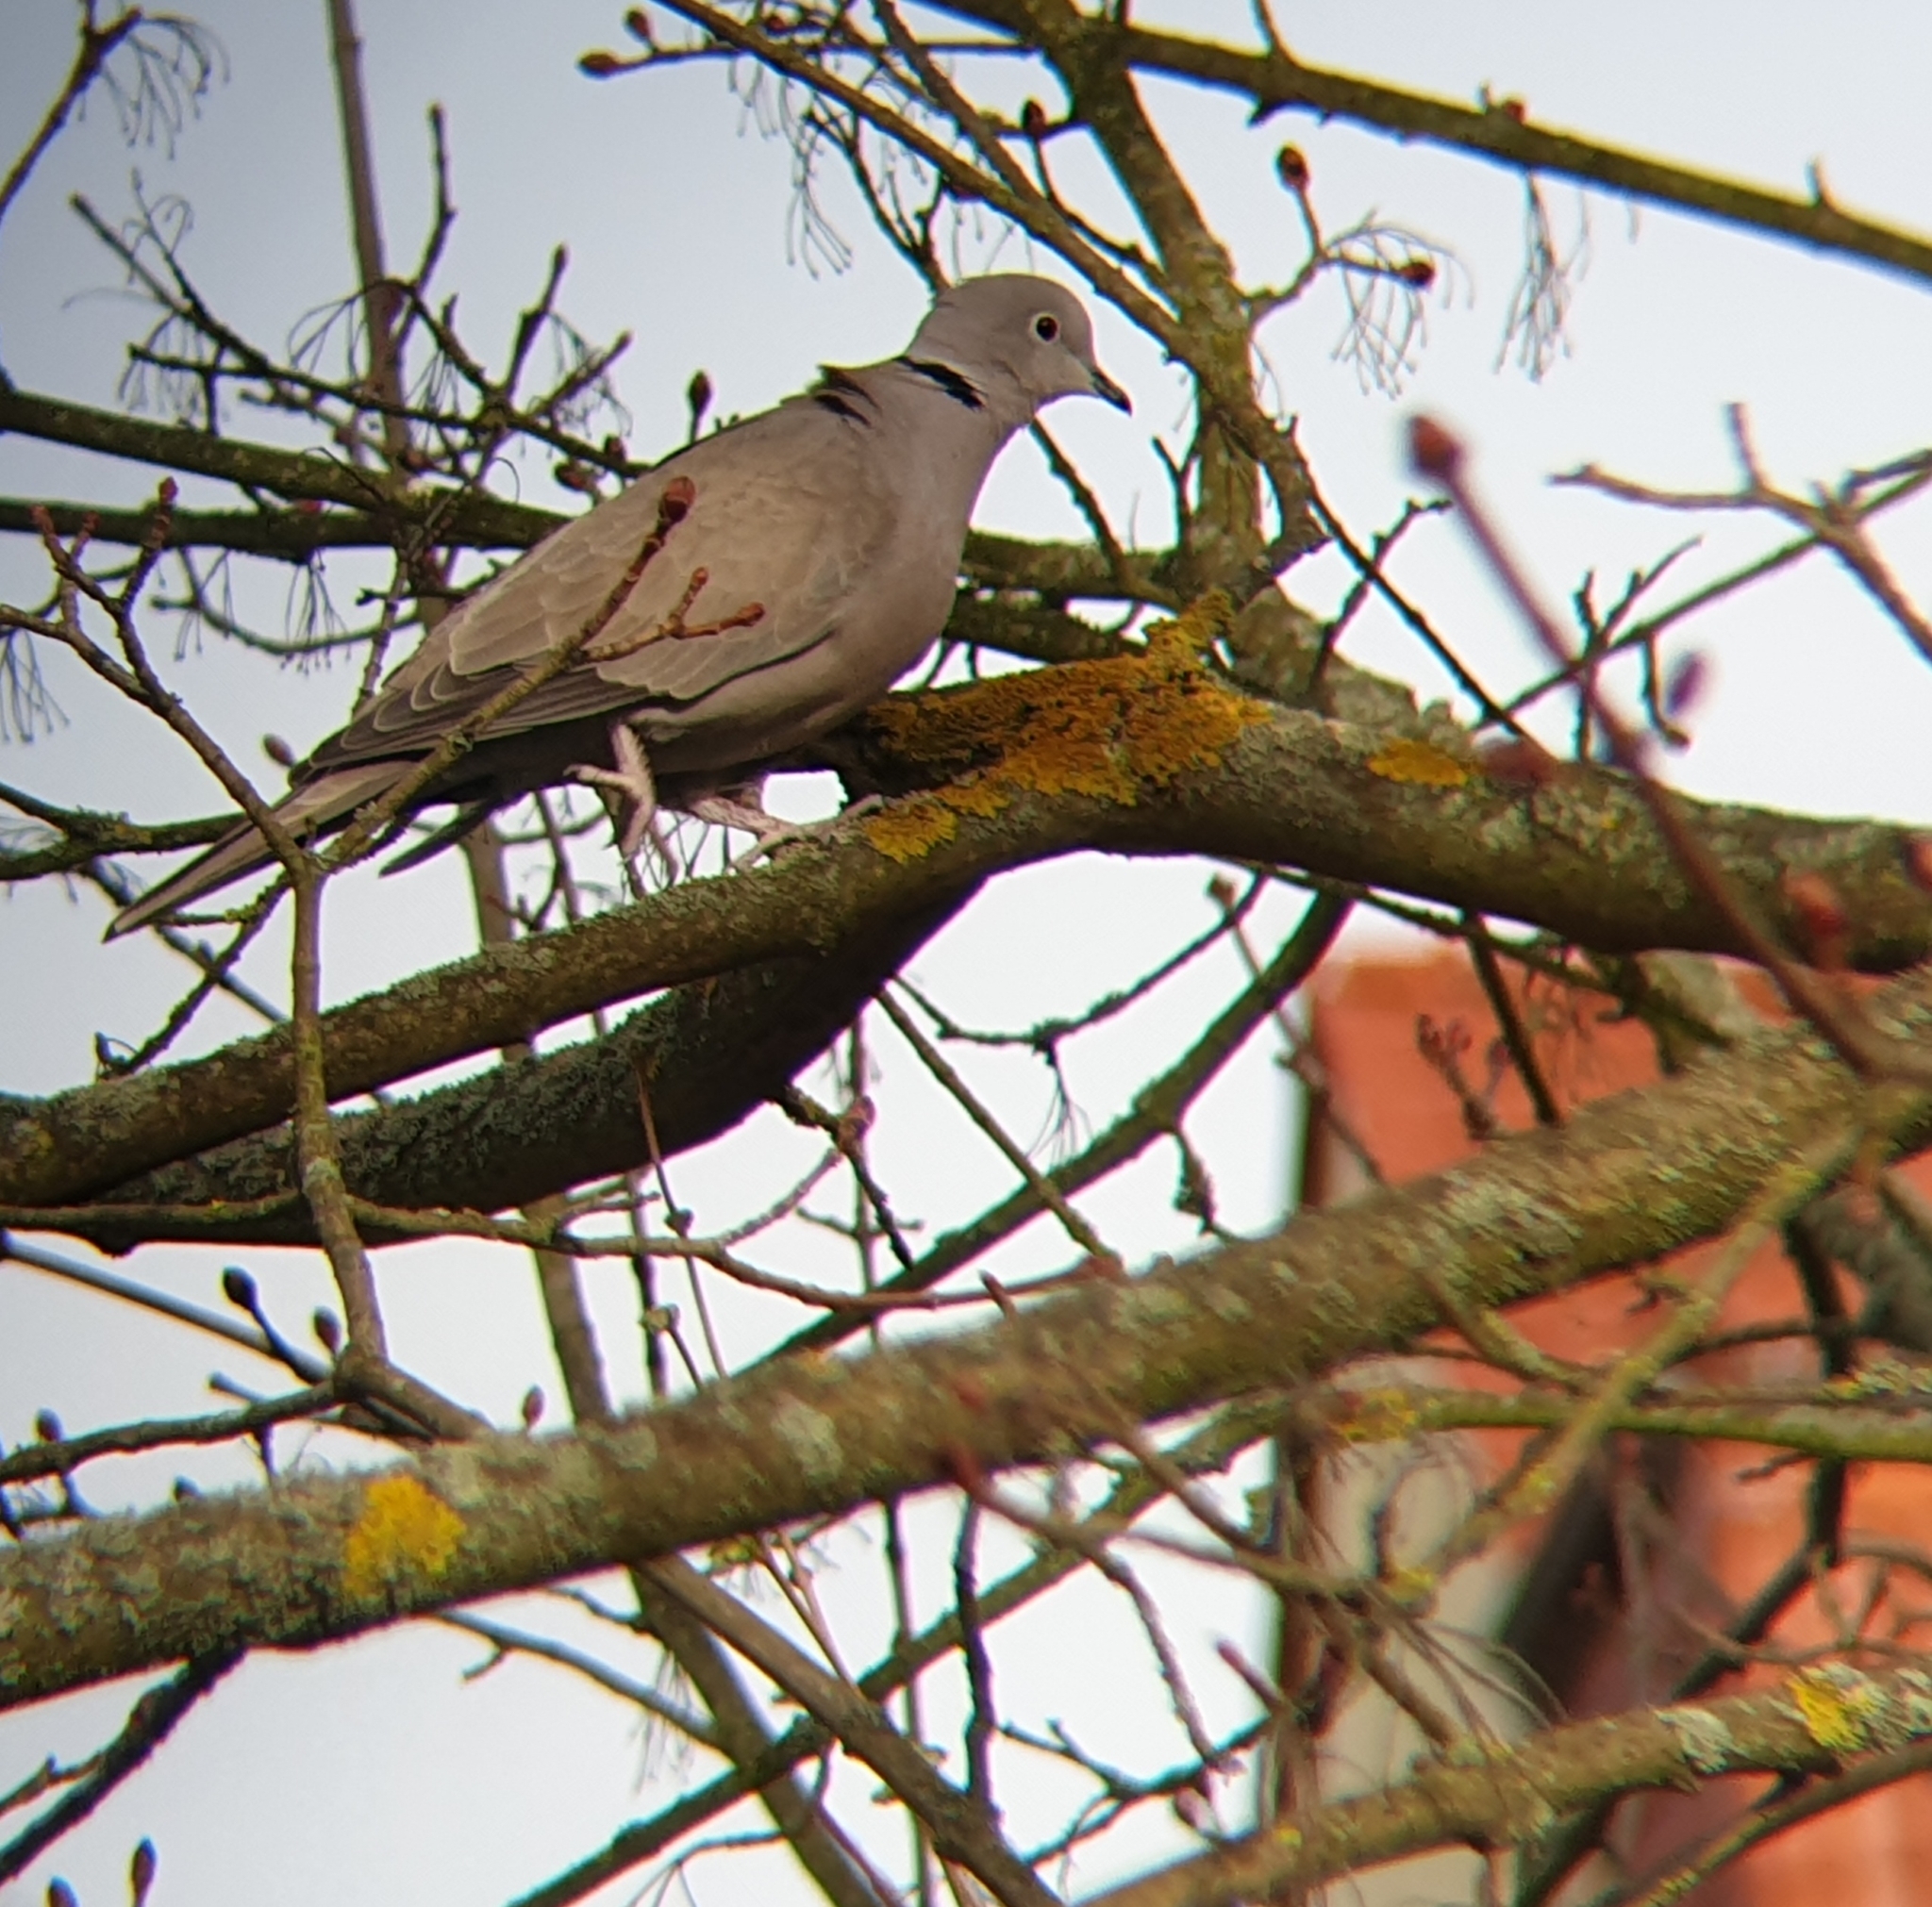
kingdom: Animalia
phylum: Chordata
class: Aves
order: Columbiformes
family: Columbidae
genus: Streptopelia
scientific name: Streptopelia decaocto
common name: Eurasian collared dove
